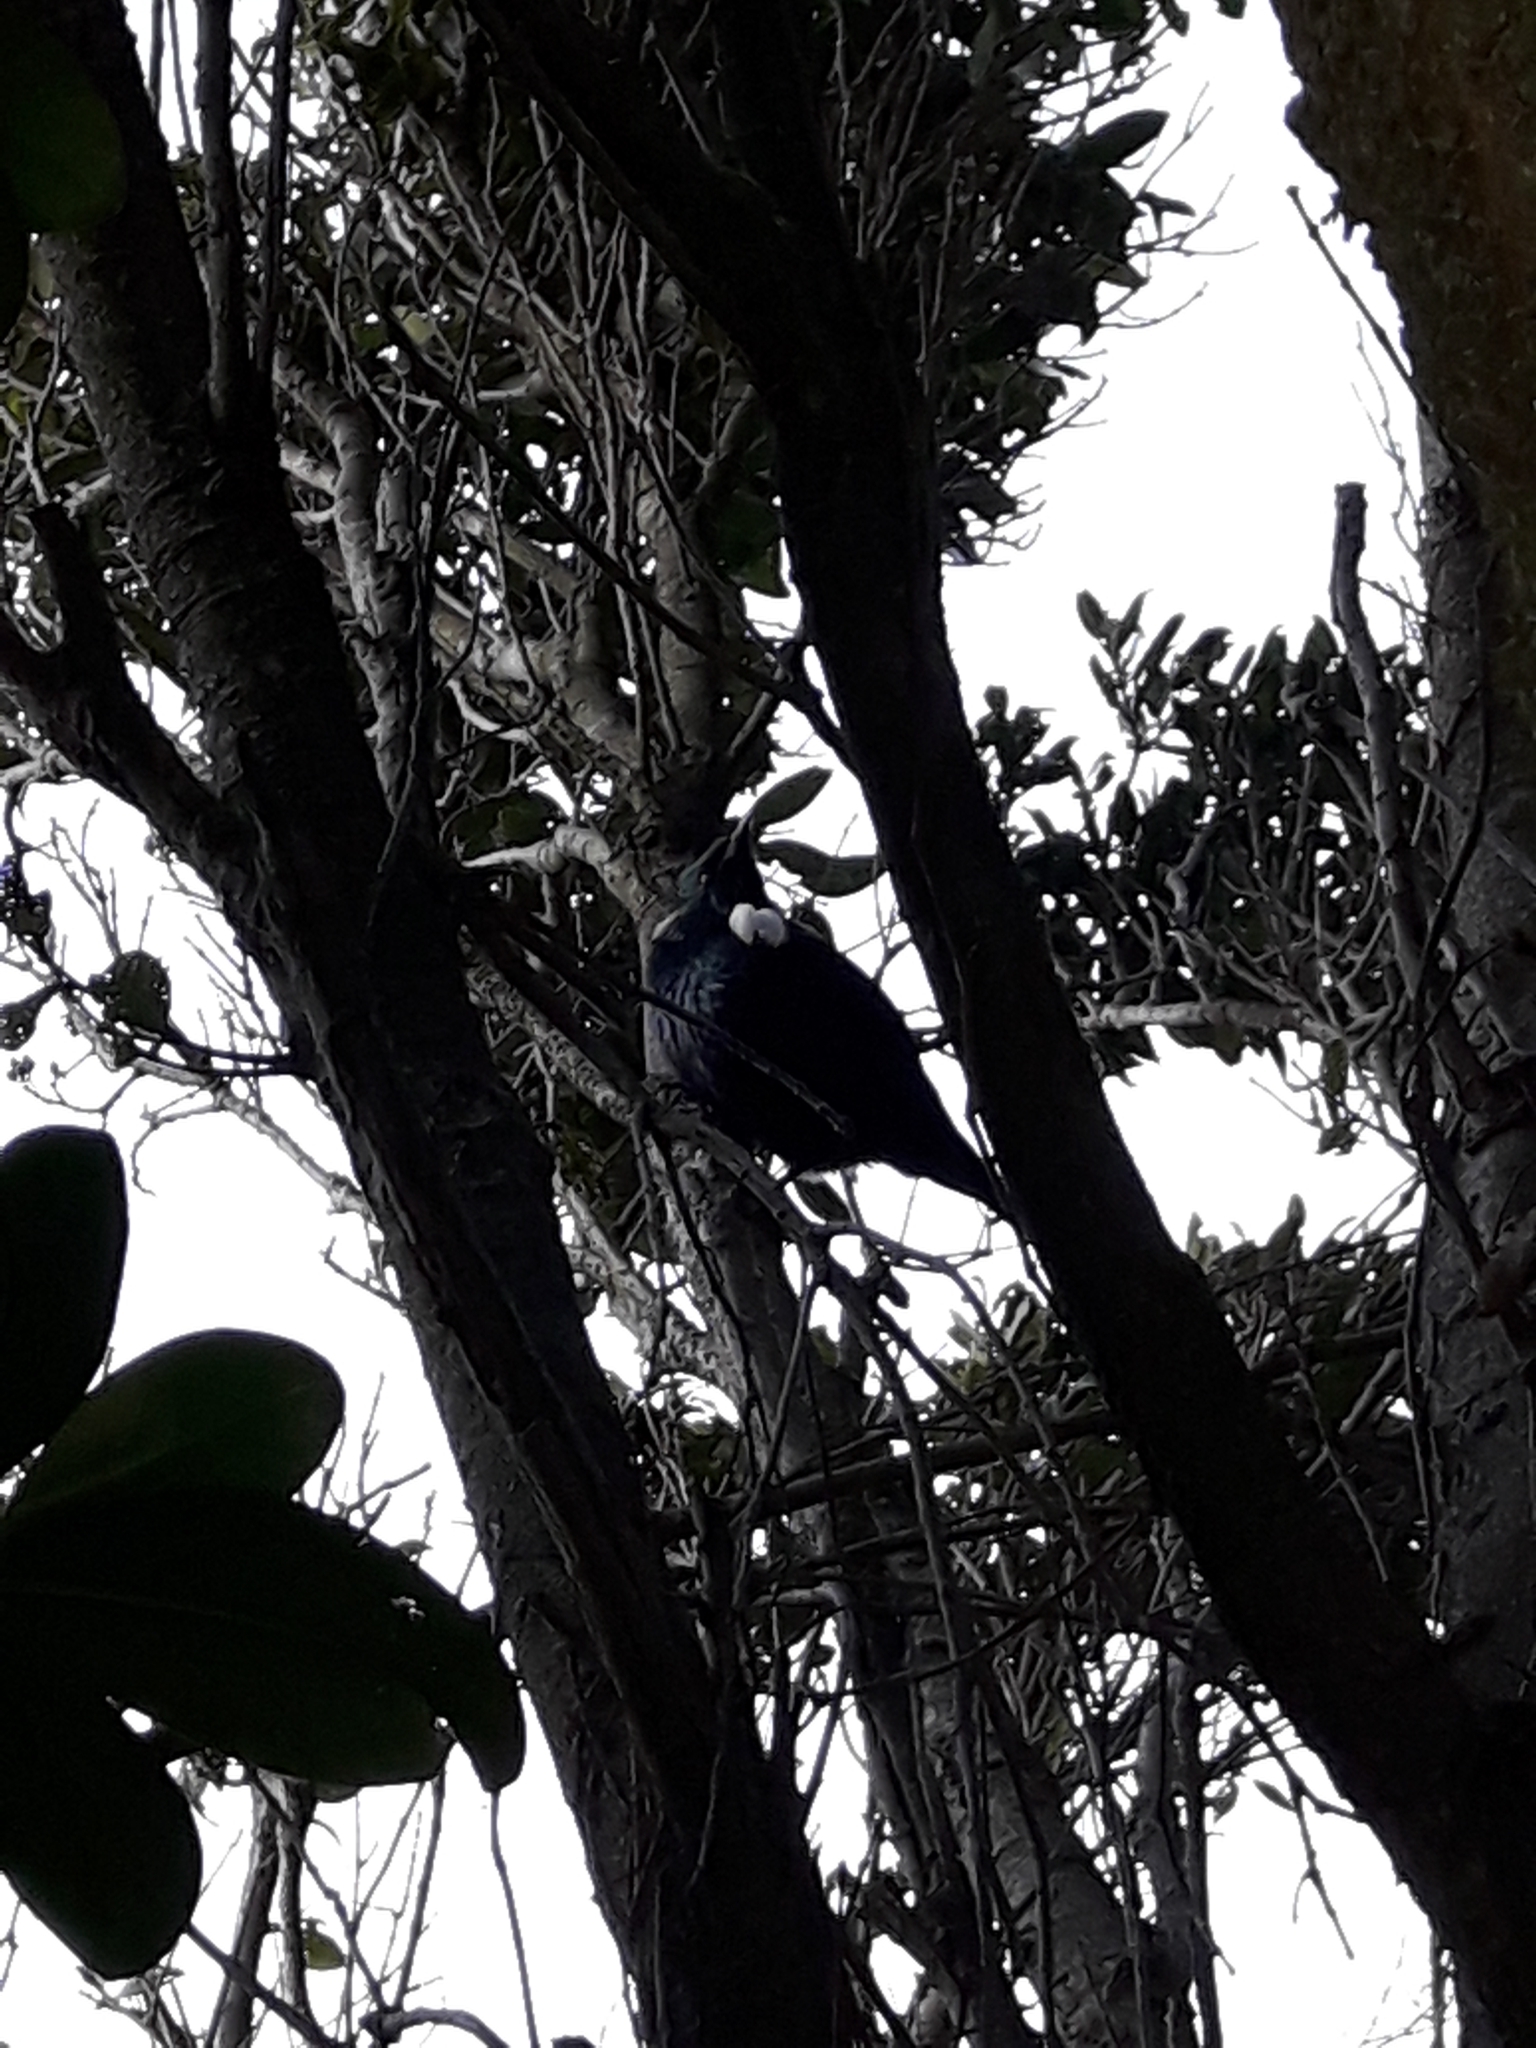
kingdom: Animalia
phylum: Chordata
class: Aves
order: Passeriformes
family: Meliphagidae
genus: Prosthemadera
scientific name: Prosthemadera novaeseelandiae
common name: Tui
